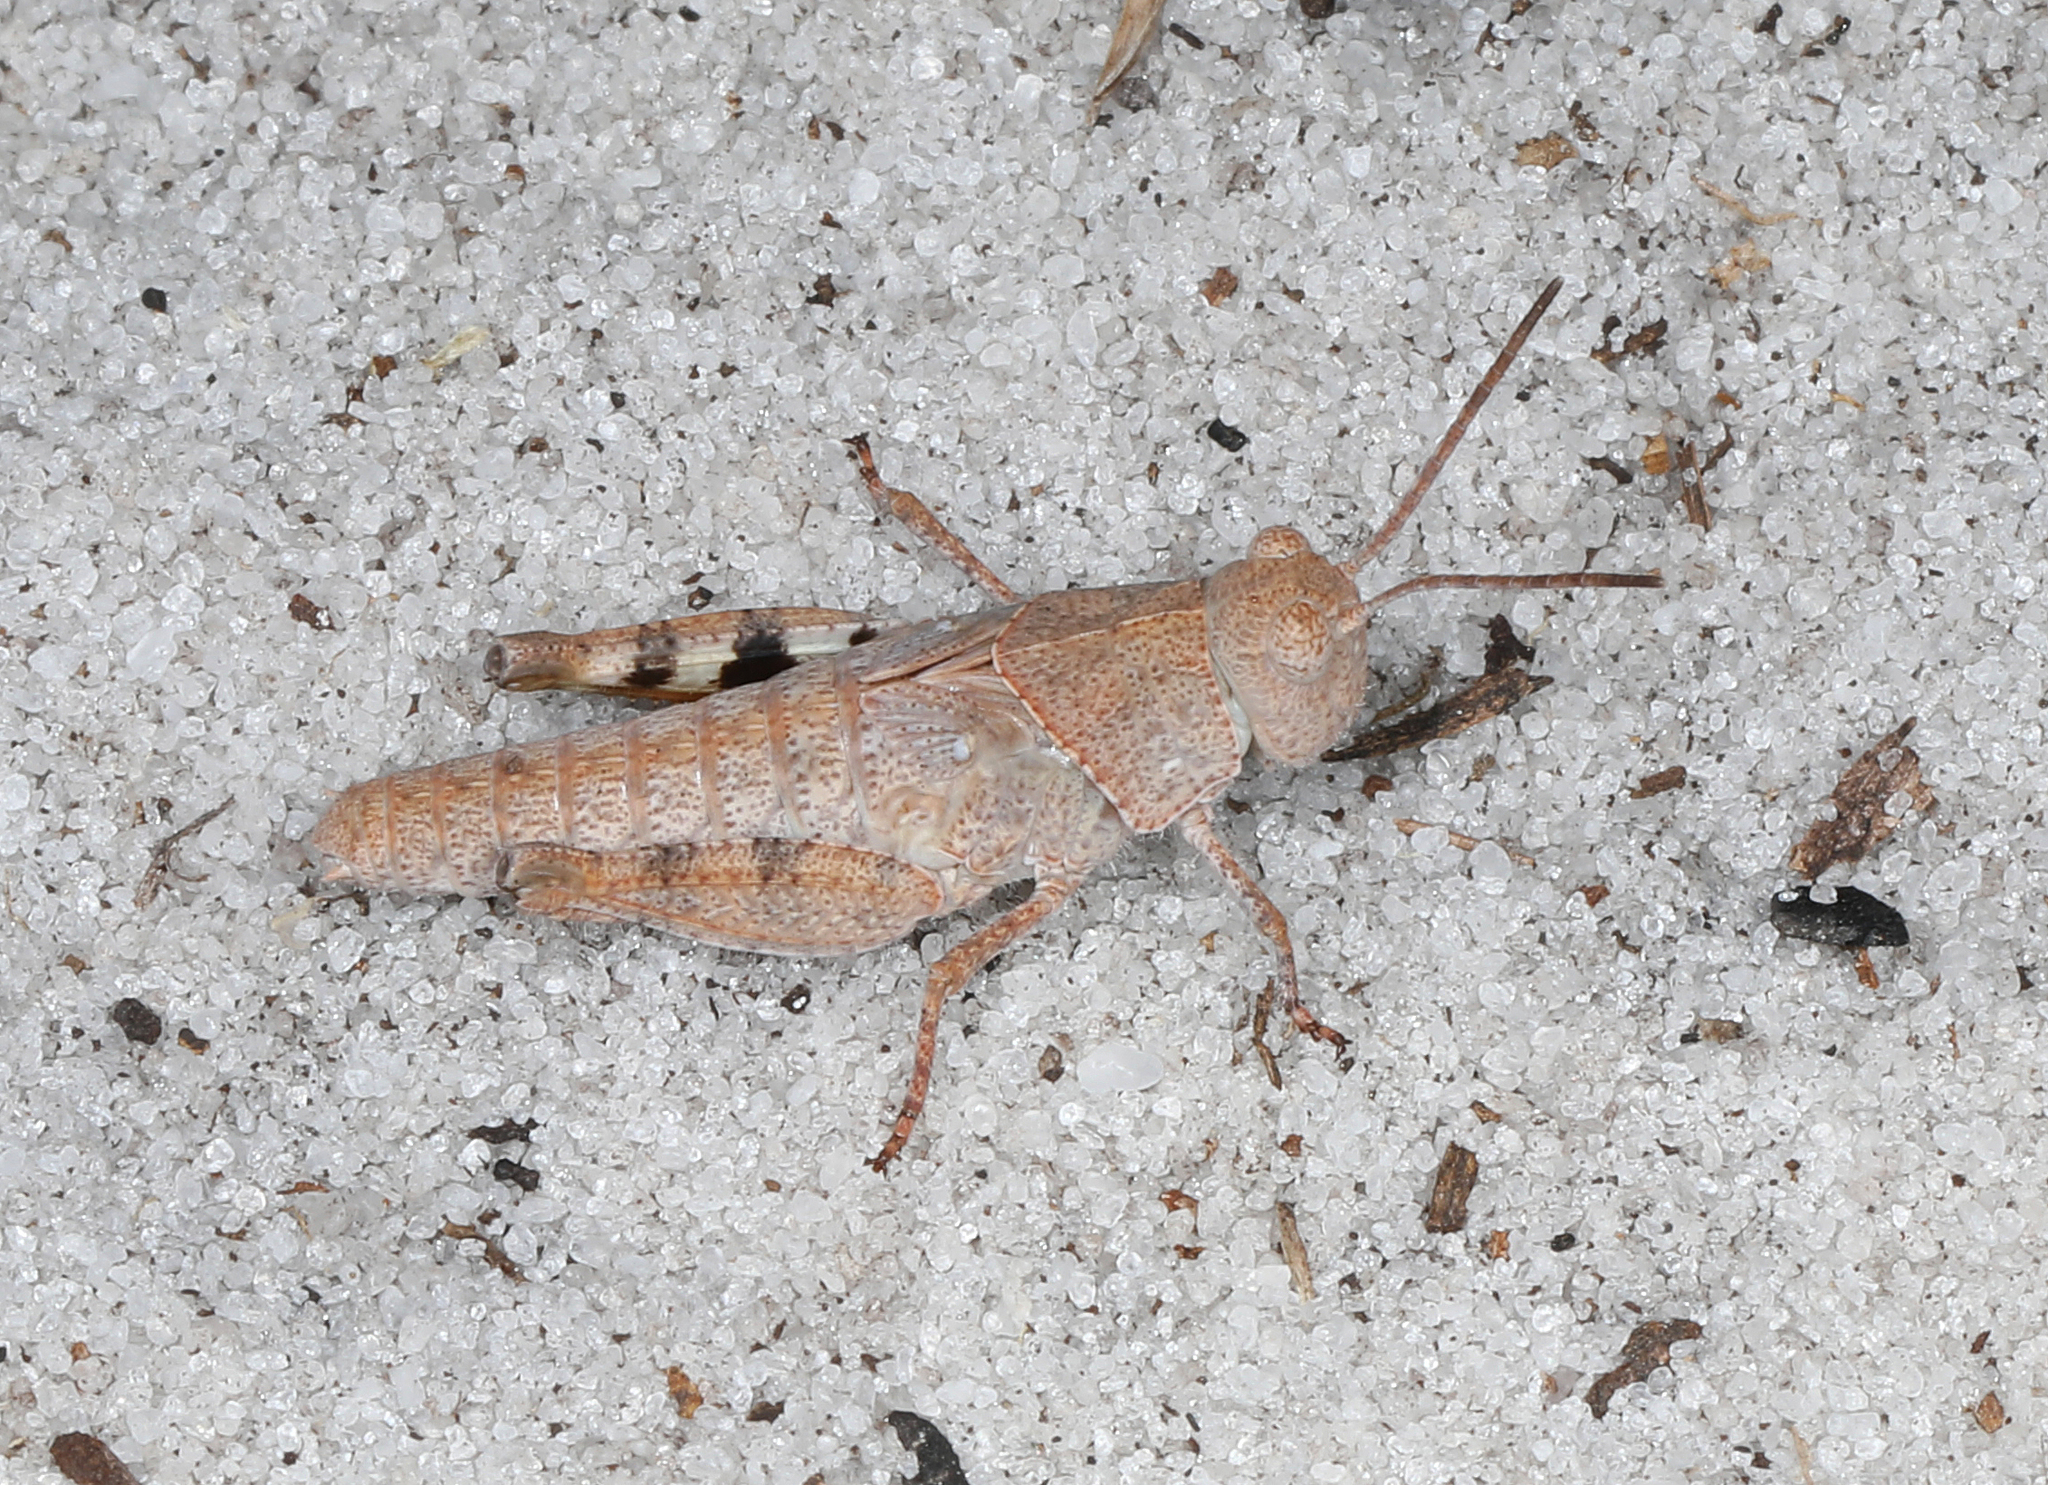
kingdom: Animalia
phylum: Arthropoda
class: Insecta
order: Orthoptera
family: Acrididae
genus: Spharagemon
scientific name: Spharagemon marmoratum
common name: Marbled grasshopper
